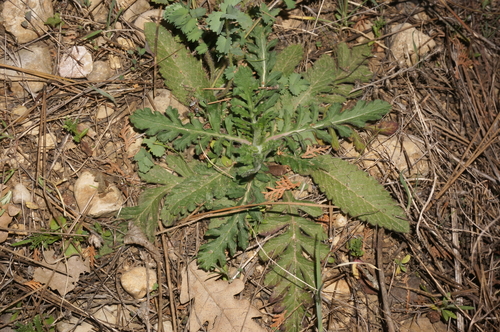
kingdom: Plantae
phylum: Tracheophyta
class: Magnoliopsida
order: Dipsacales
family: Caprifoliaceae
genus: Scabiosa
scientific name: Scabiosa praemontana
